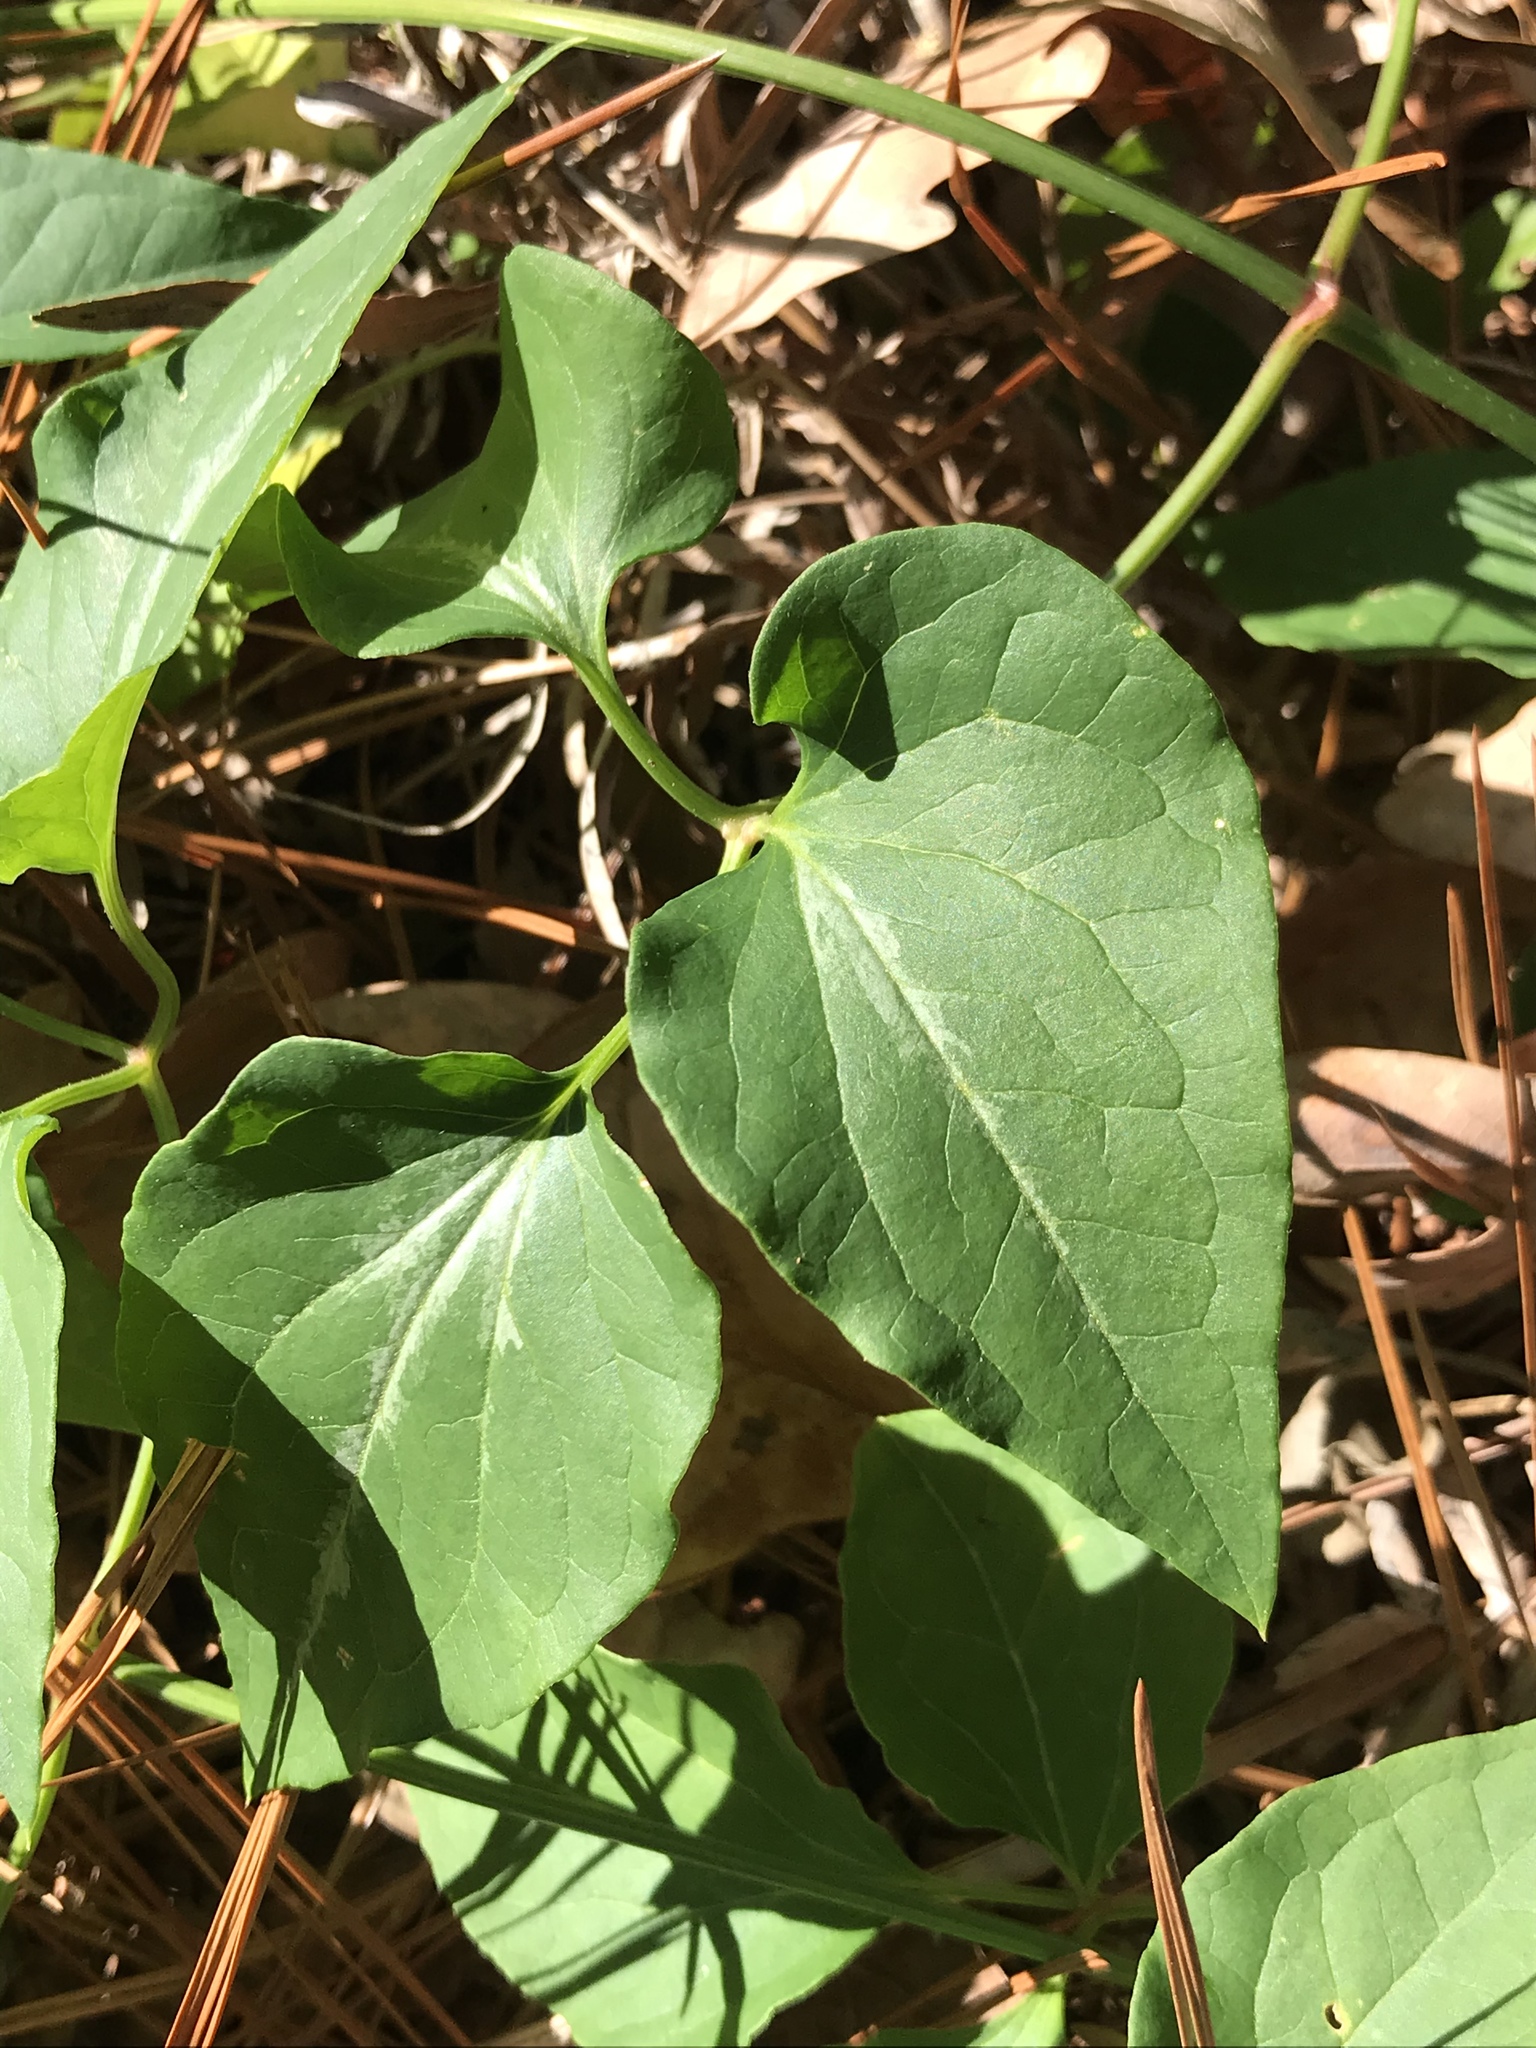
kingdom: Plantae
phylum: Tracheophyta
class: Magnoliopsida
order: Ranunculales
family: Ranunculaceae
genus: Clematis
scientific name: Clematis terniflora
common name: Sweet autumn clematis
